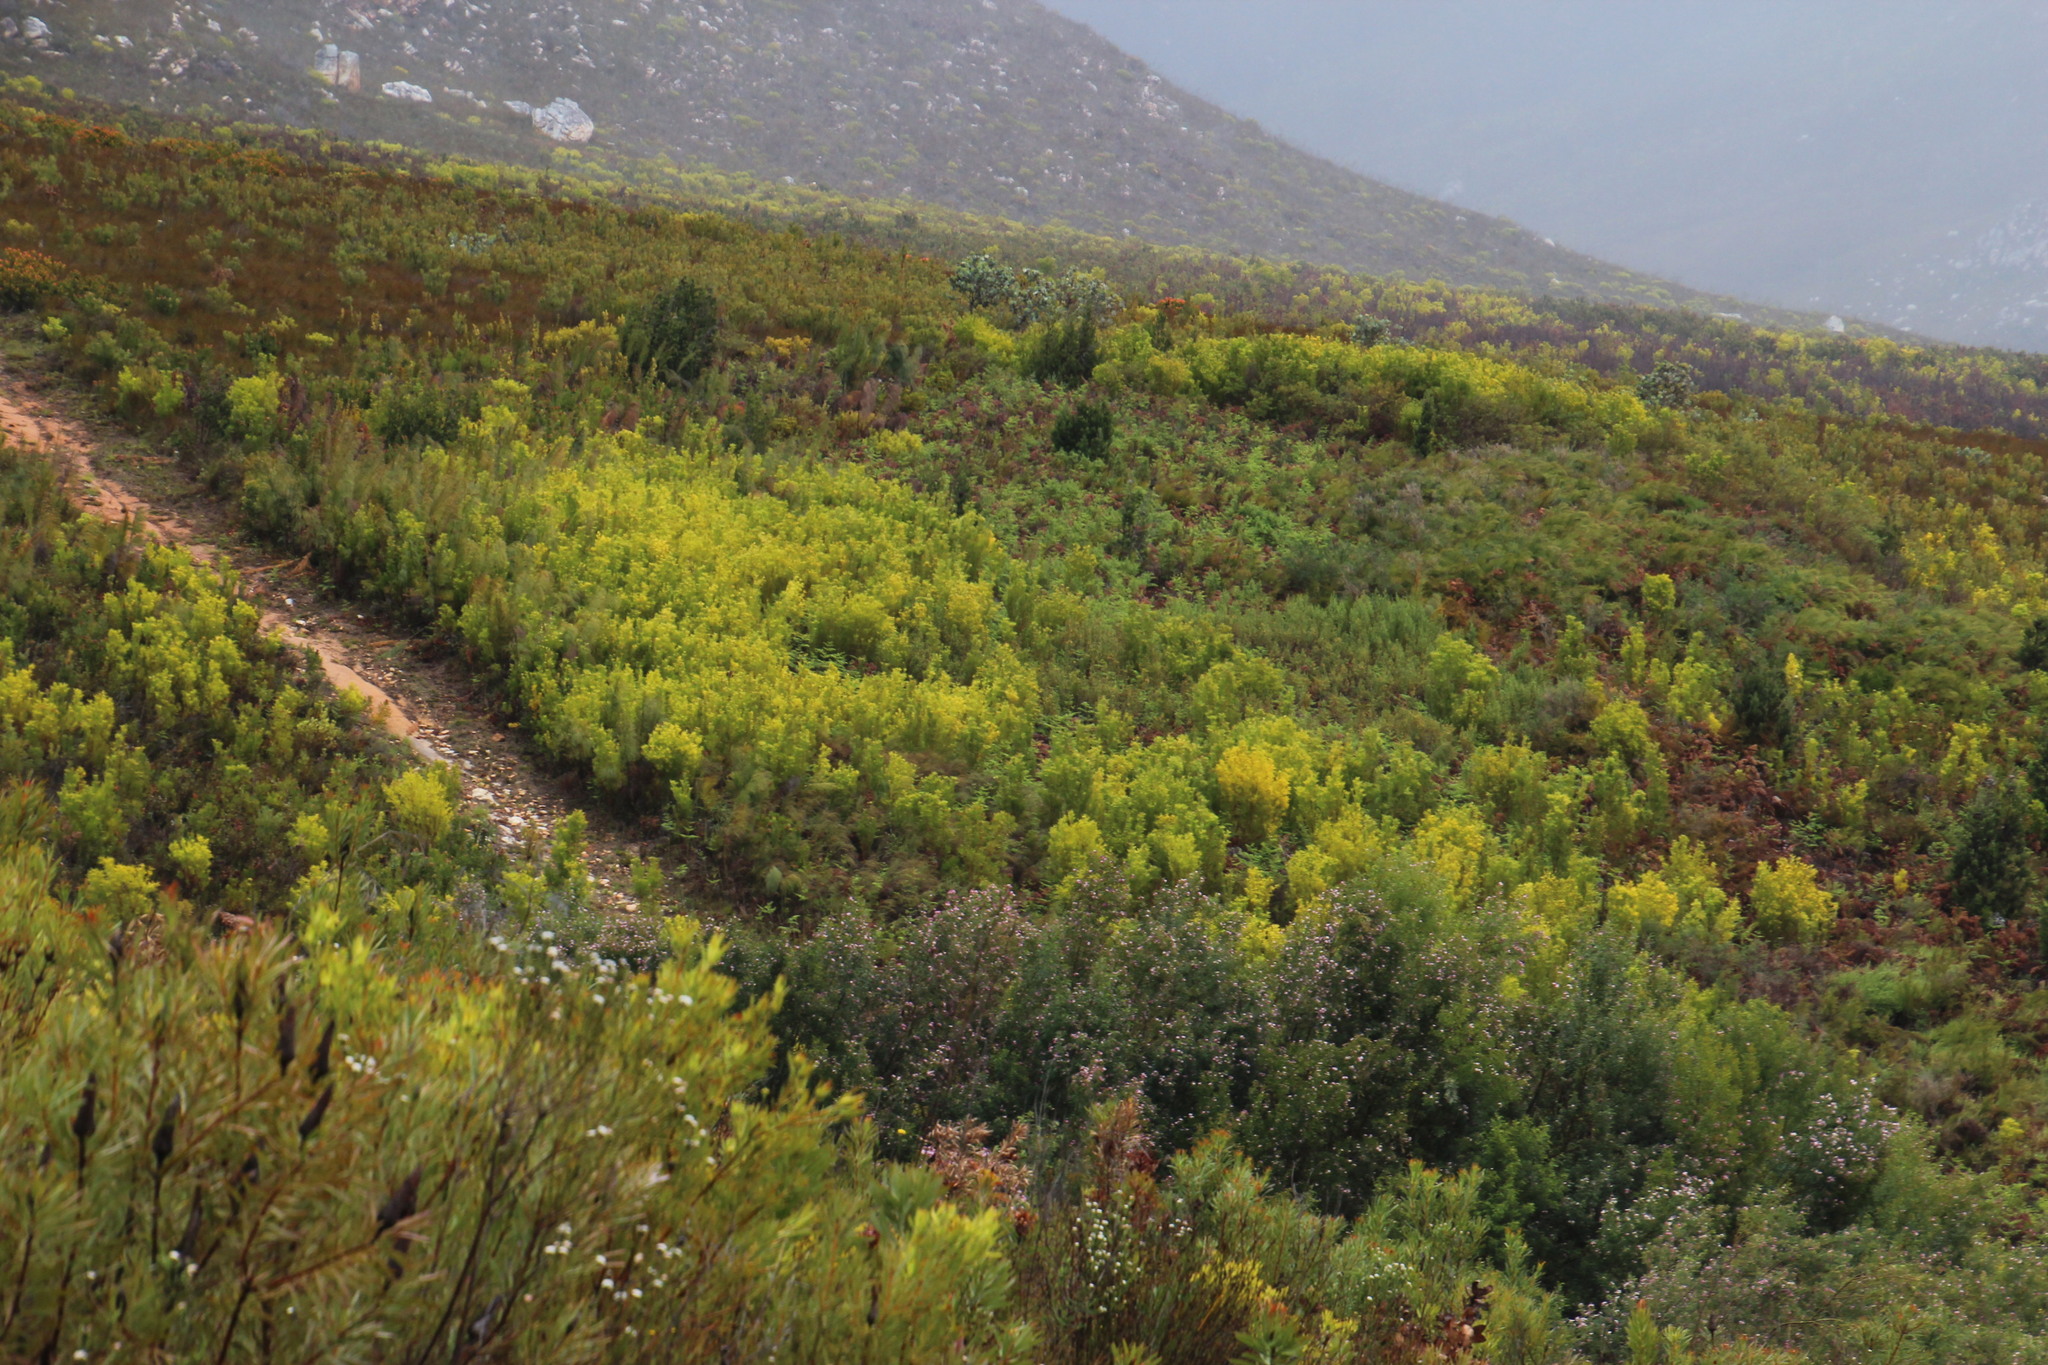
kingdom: Plantae
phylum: Tracheophyta
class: Magnoliopsida
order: Proteales
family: Proteaceae
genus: Leucadendron
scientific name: Leucadendron eucalyptifolium
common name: Gum-leaved conebush
